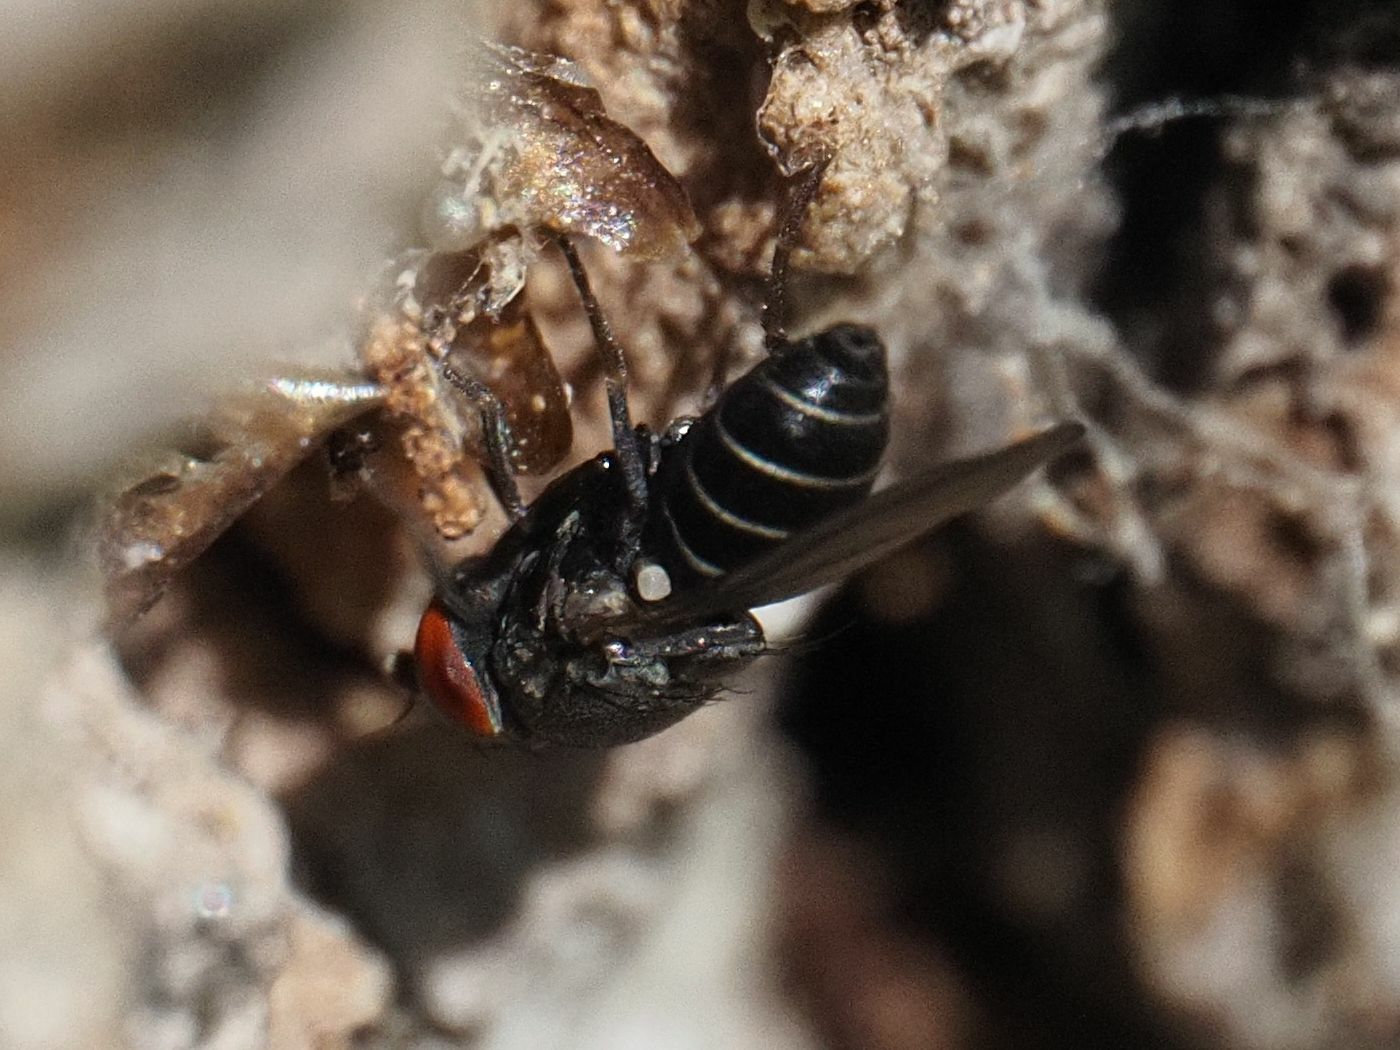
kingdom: Animalia
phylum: Arthropoda
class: Insecta
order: Diptera
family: Drosophilidae
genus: Cacoxenus
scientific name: Cacoxenus indagator
